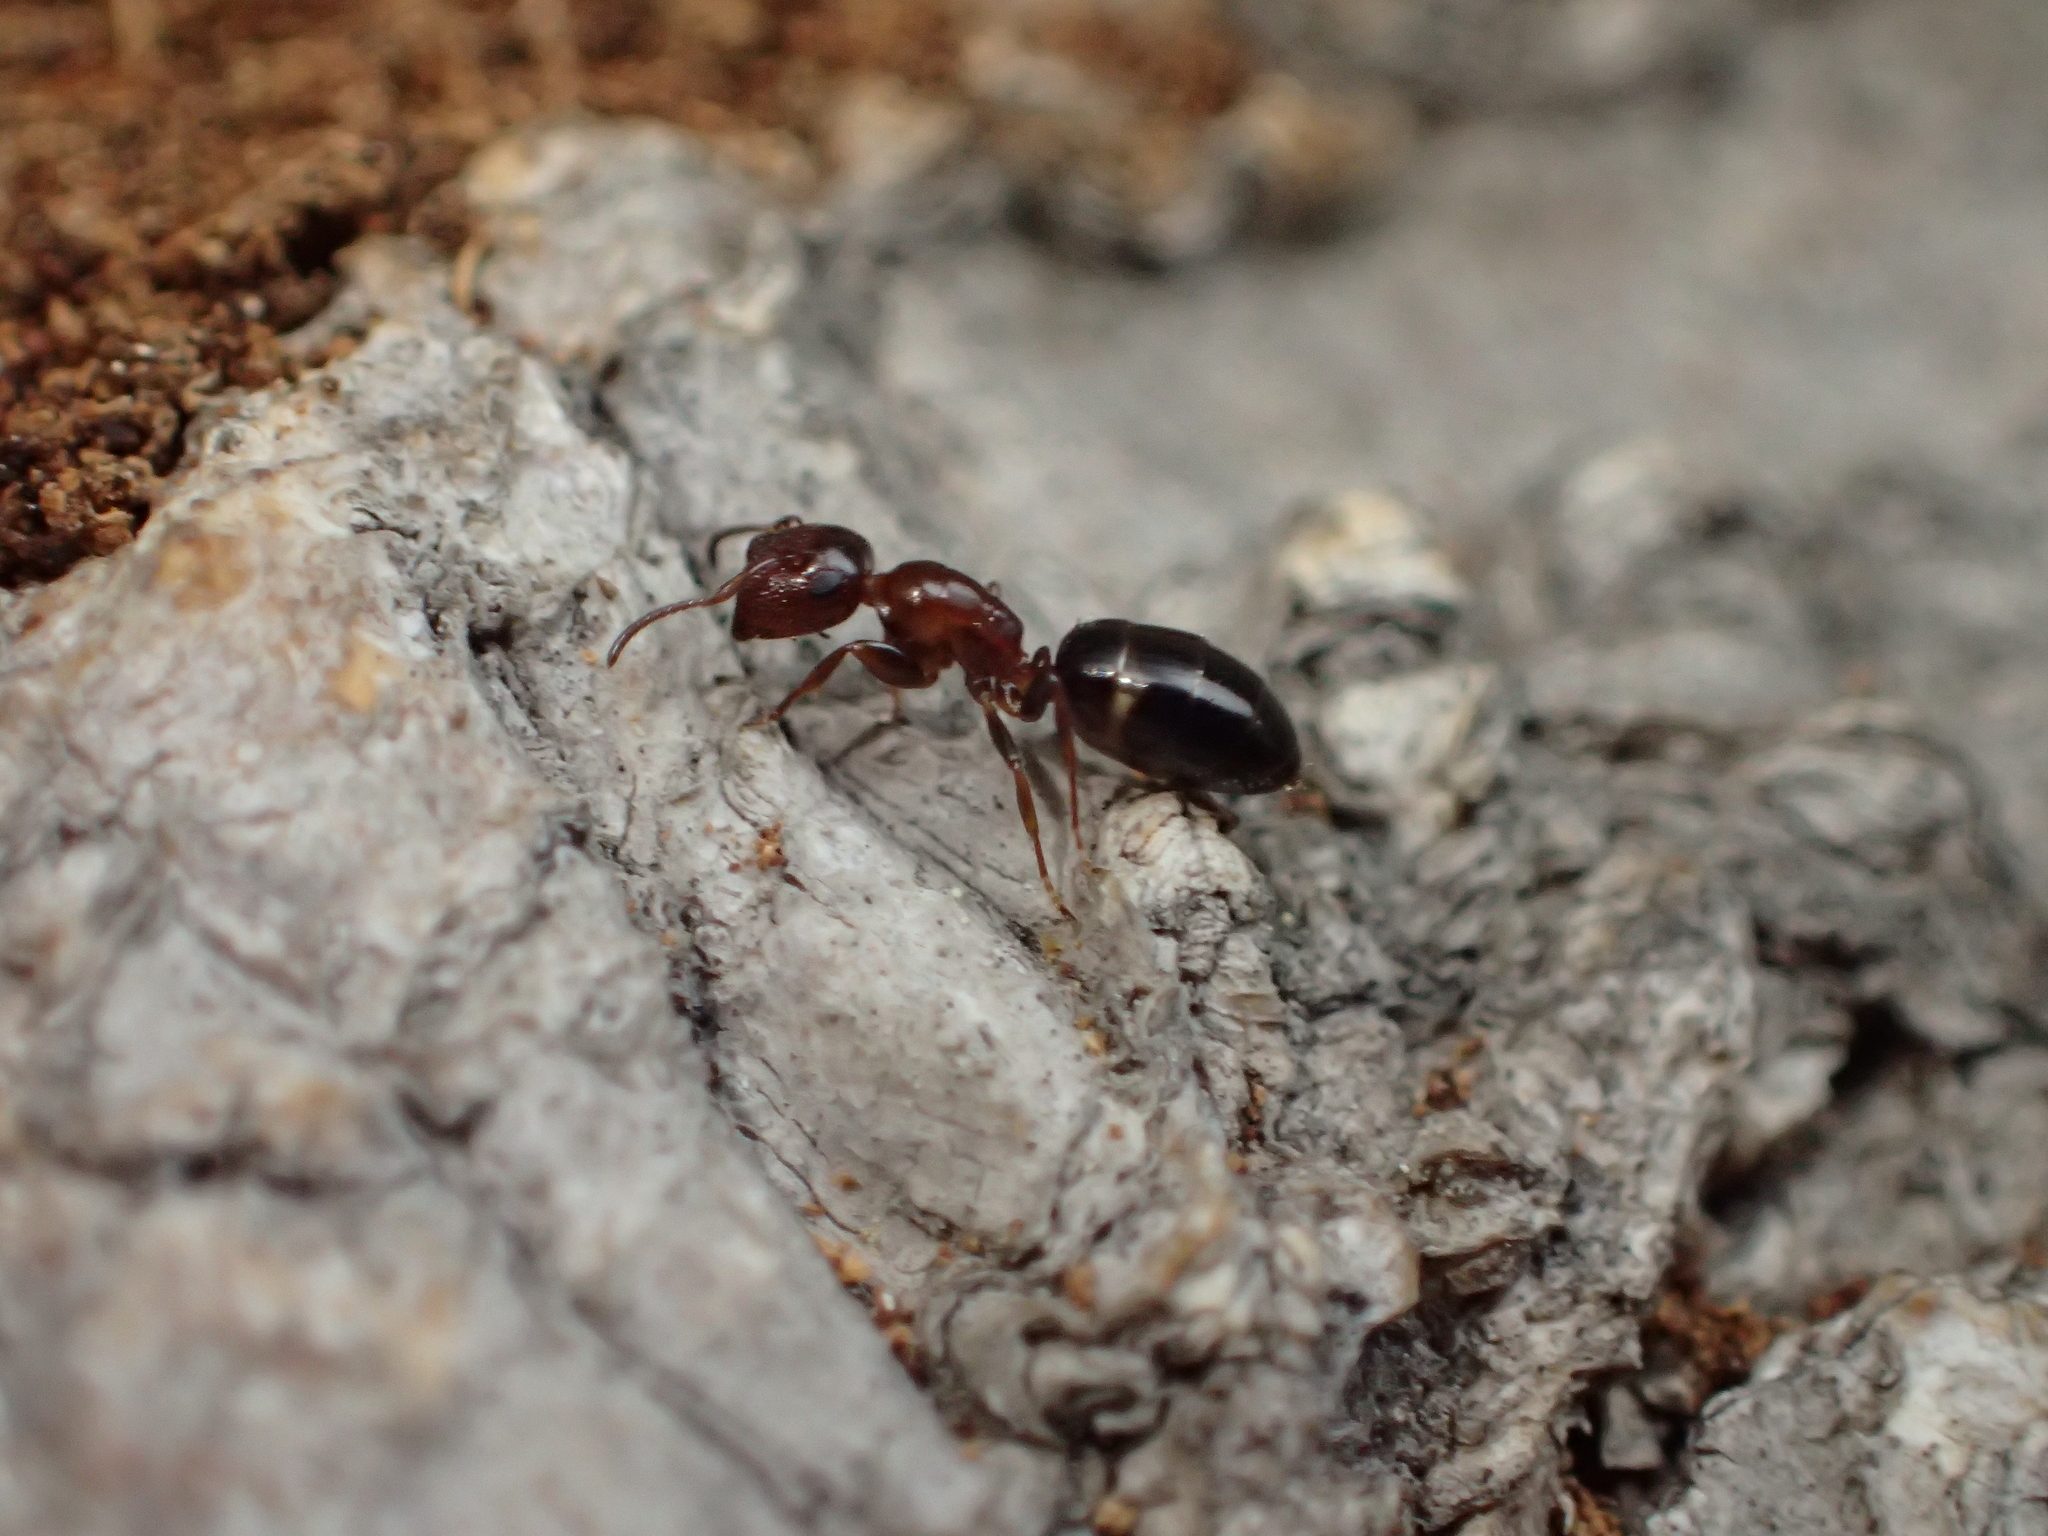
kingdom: Animalia
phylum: Arthropoda
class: Insecta
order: Hymenoptera
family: Formicidae
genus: Camponotus
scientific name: Camponotus truncatus
